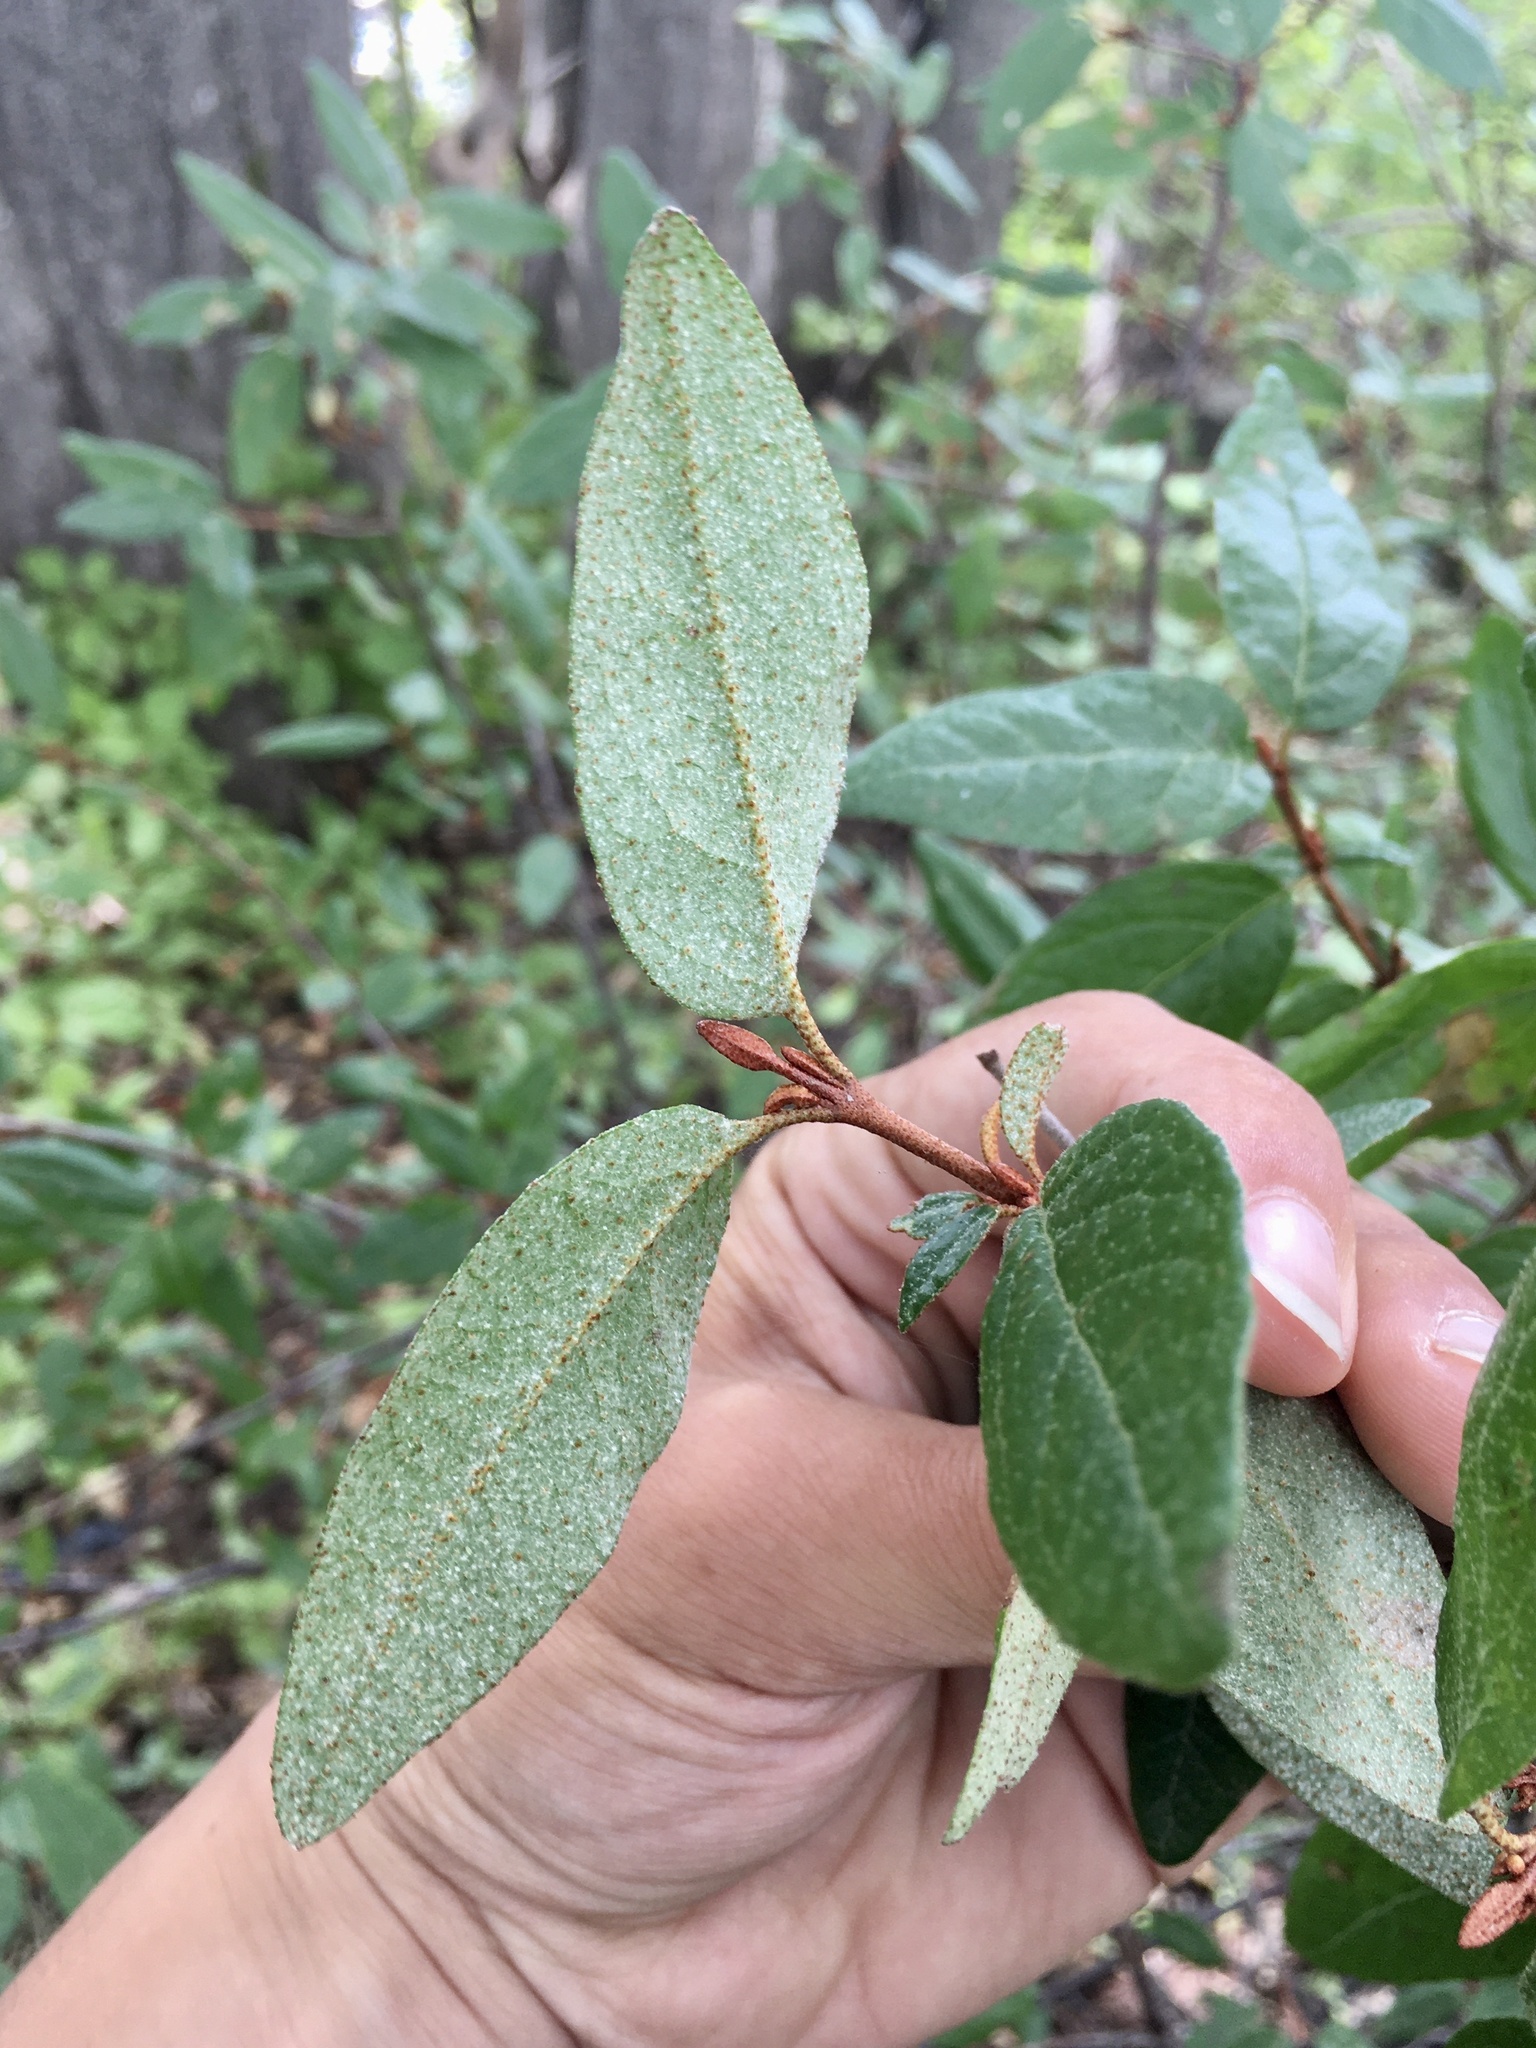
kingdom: Plantae
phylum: Tracheophyta
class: Magnoliopsida
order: Rosales
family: Elaeagnaceae
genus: Shepherdia
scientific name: Shepherdia canadensis
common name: Soapberry
